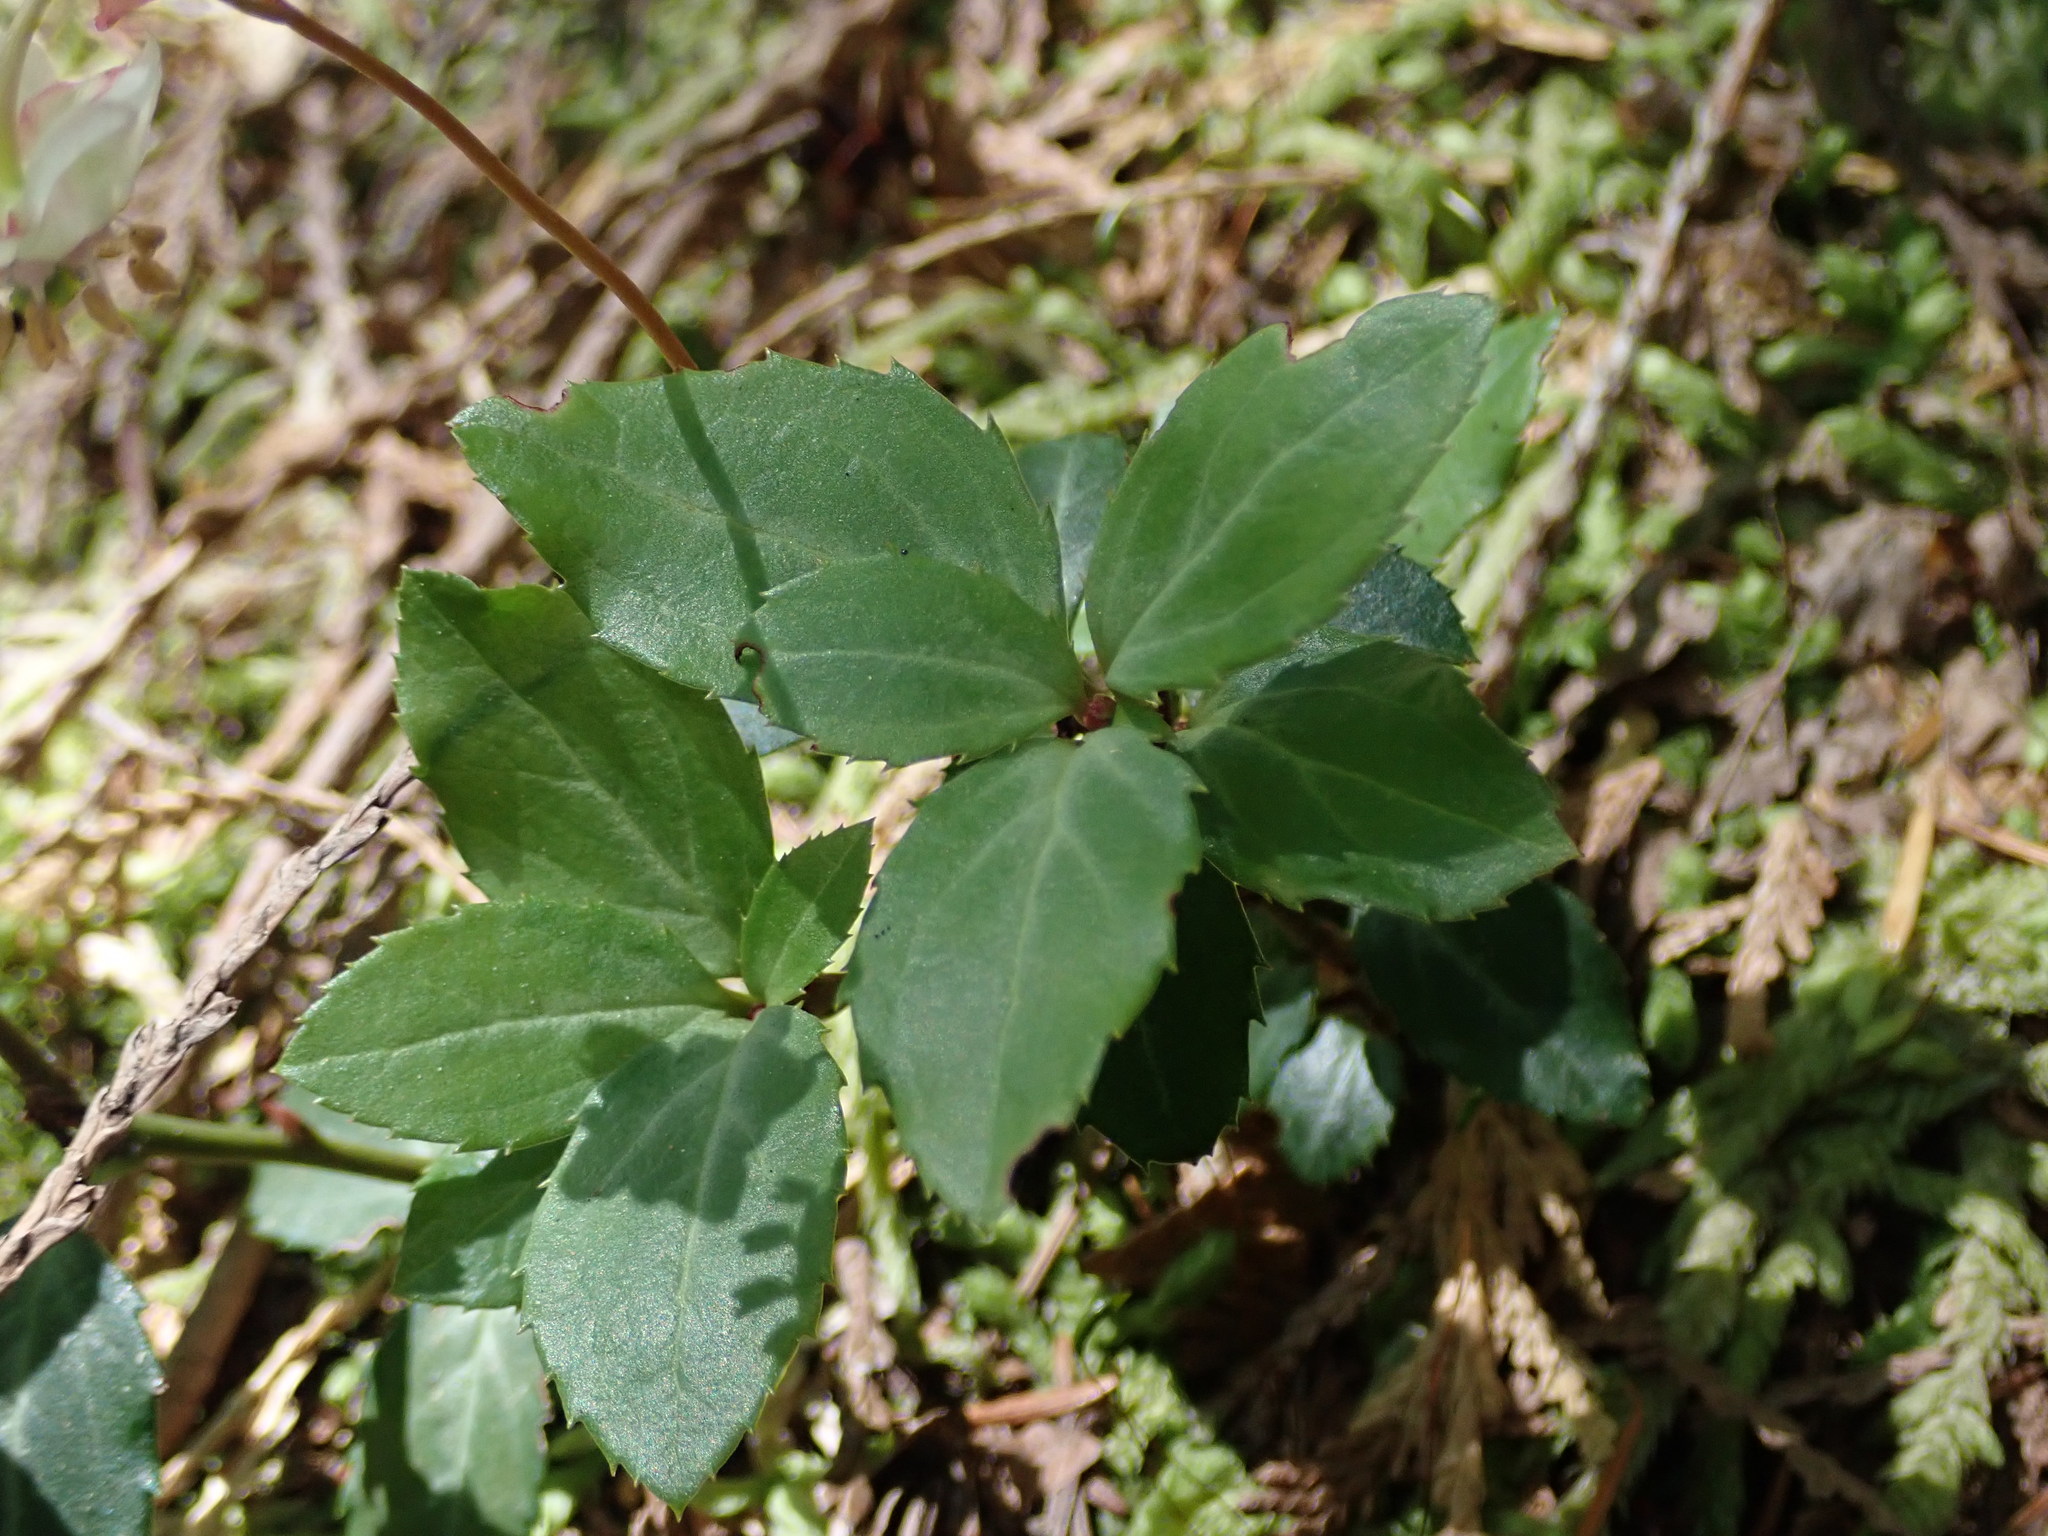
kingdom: Plantae
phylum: Tracheophyta
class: Magnoliopsida
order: Ericales
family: Ericaceae
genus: Chimaphila
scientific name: Chimaphila menziesii
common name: Menzies' pipsissewa
